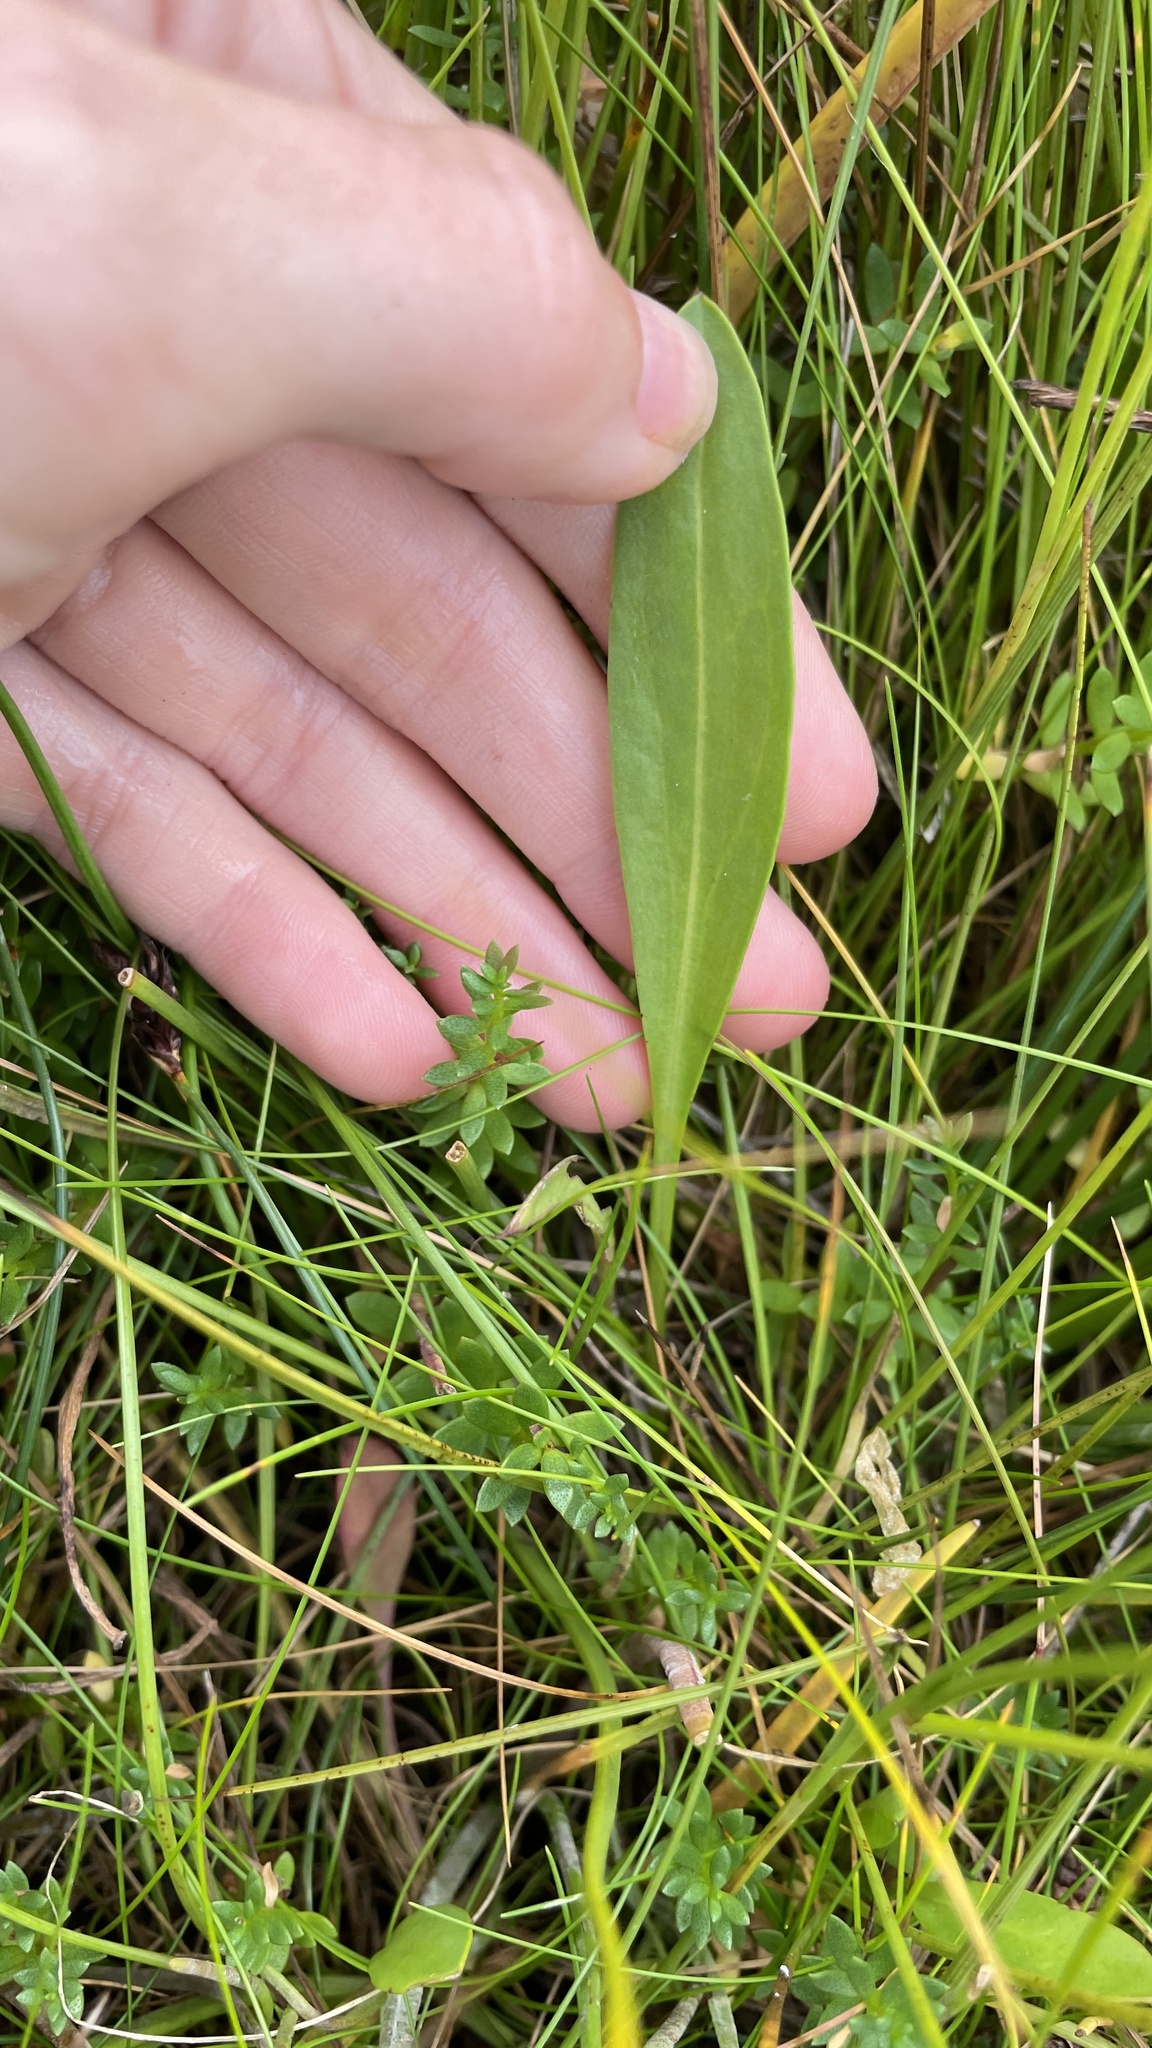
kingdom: Plantae
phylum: Tracheophyta
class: Magnoliopsida
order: Asterales
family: Asteraceae
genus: Tripolium
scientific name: Tripolium pannonicum
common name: Sea aster
